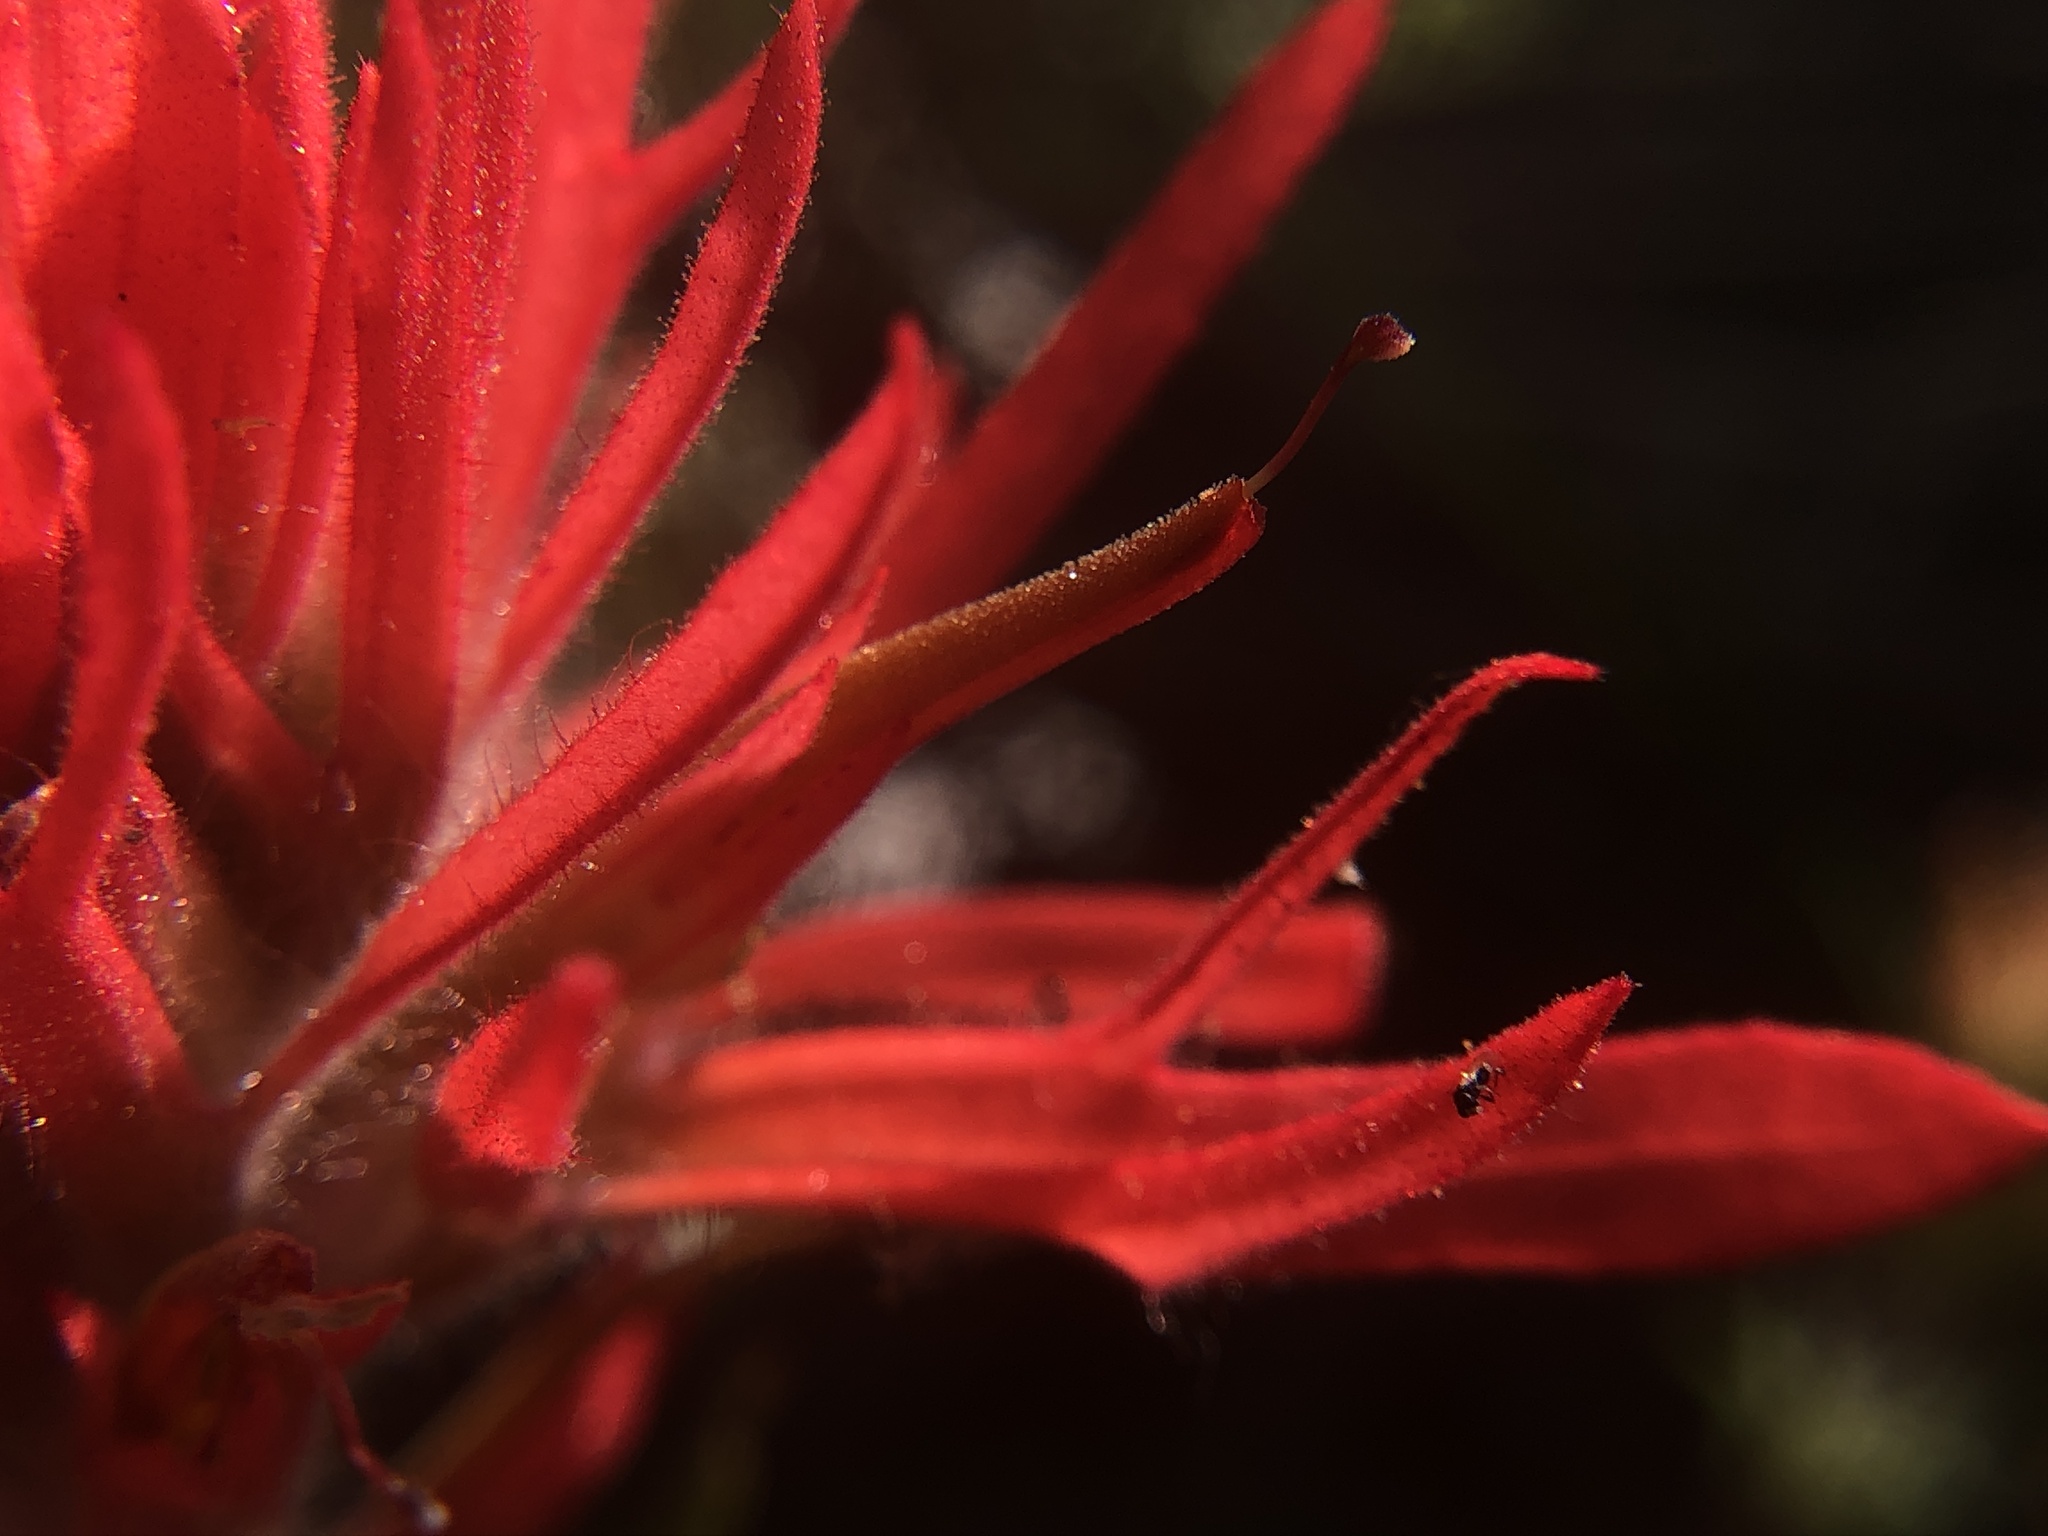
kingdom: Plantae
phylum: Tracheophyta
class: Magnoliopsida
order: Lamiales
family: Orobanchaceae
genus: Castilleja
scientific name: Castilleja applegatei
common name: Wavy-leaf paintbrush
